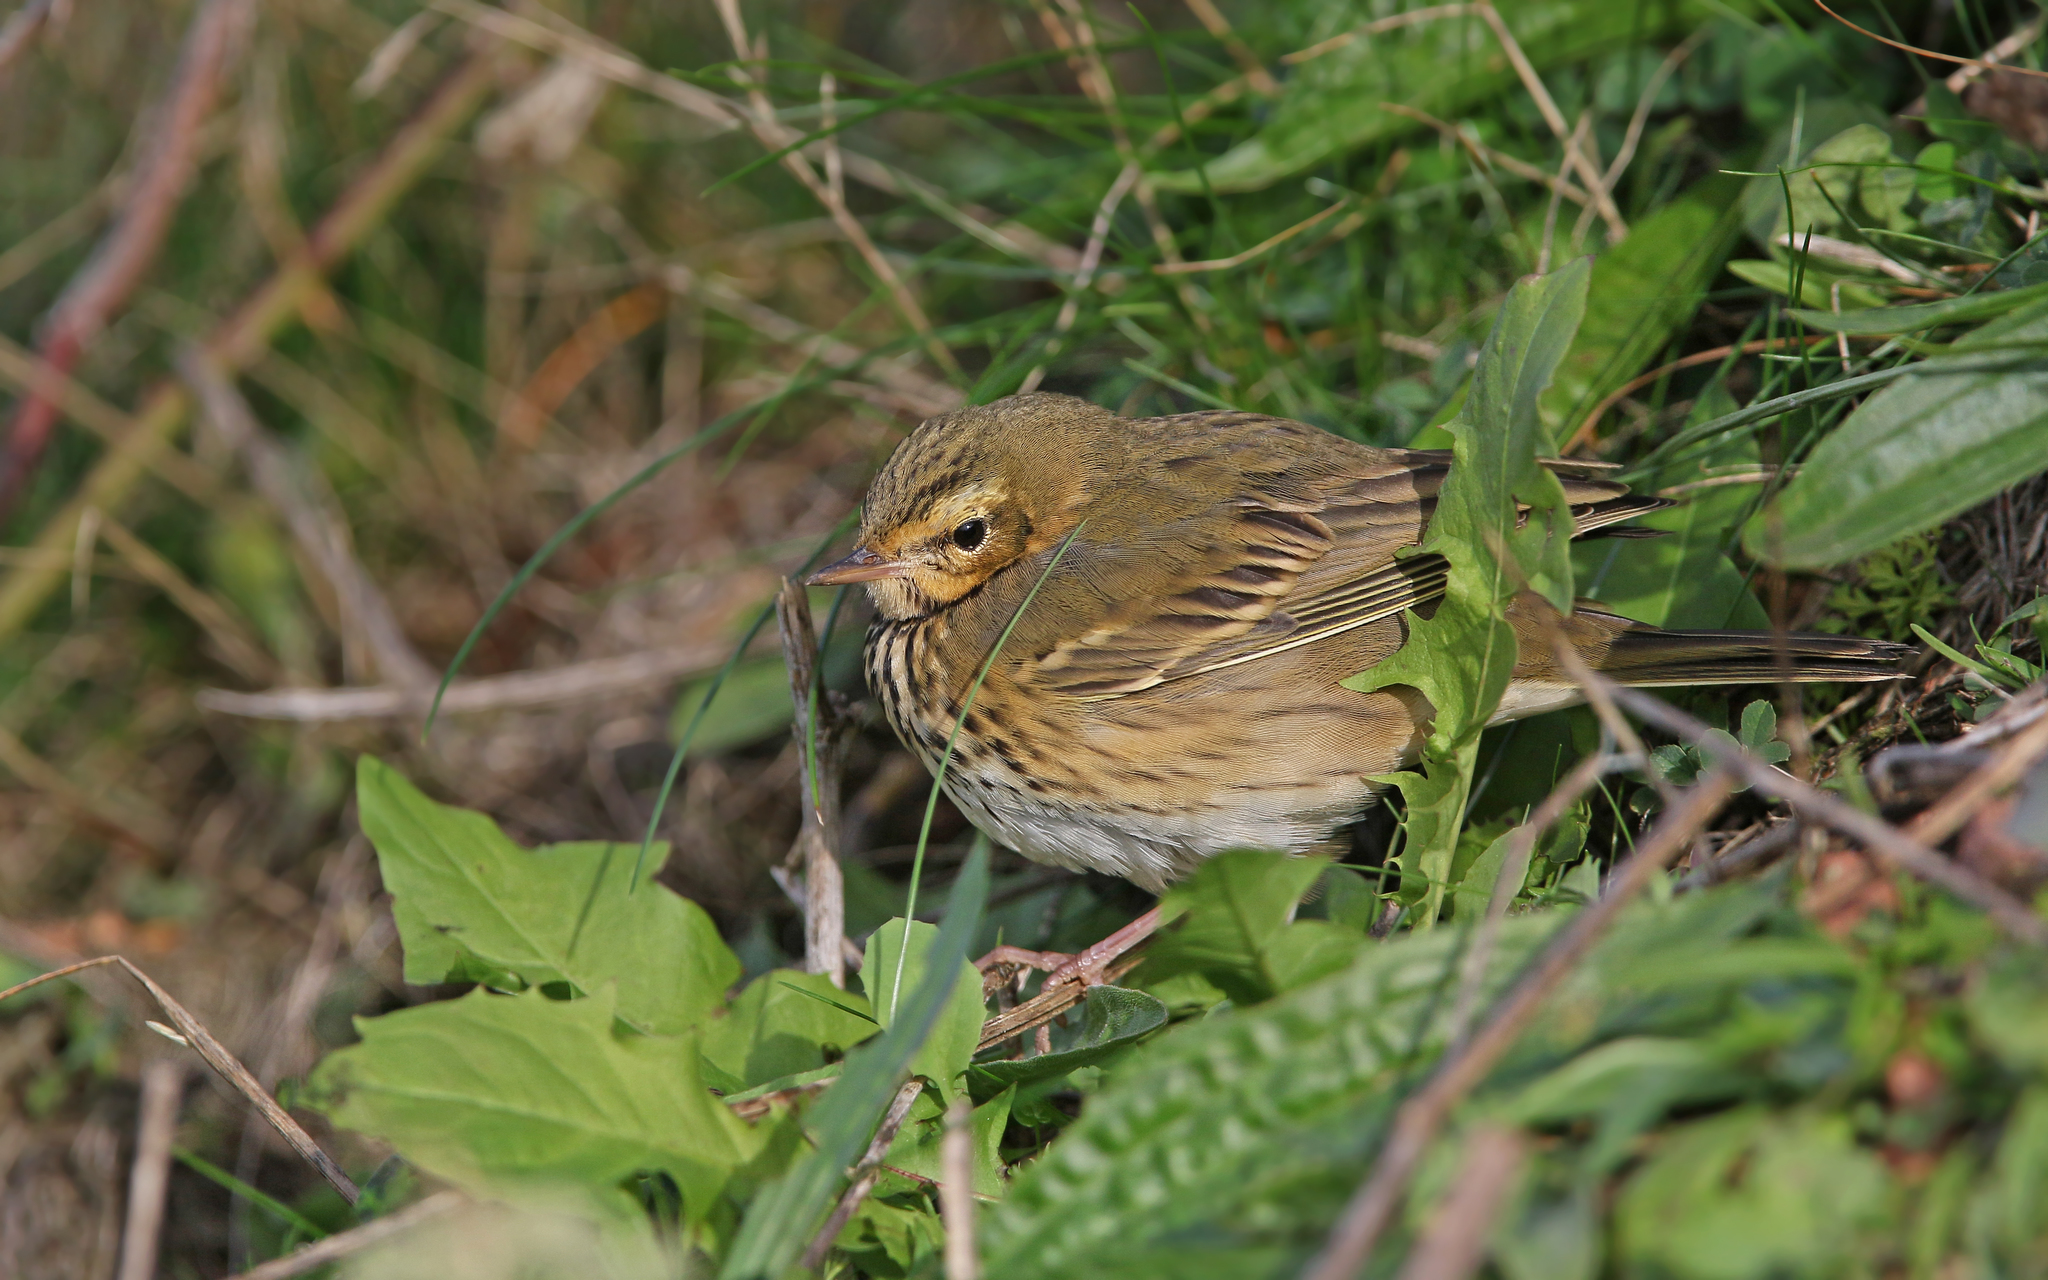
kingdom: Animalia
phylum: Chordata
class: Aves
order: Passeriformes
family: Motacillidae
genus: Anthus
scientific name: Anthus hodgsoni
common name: Olive-backed pipit
